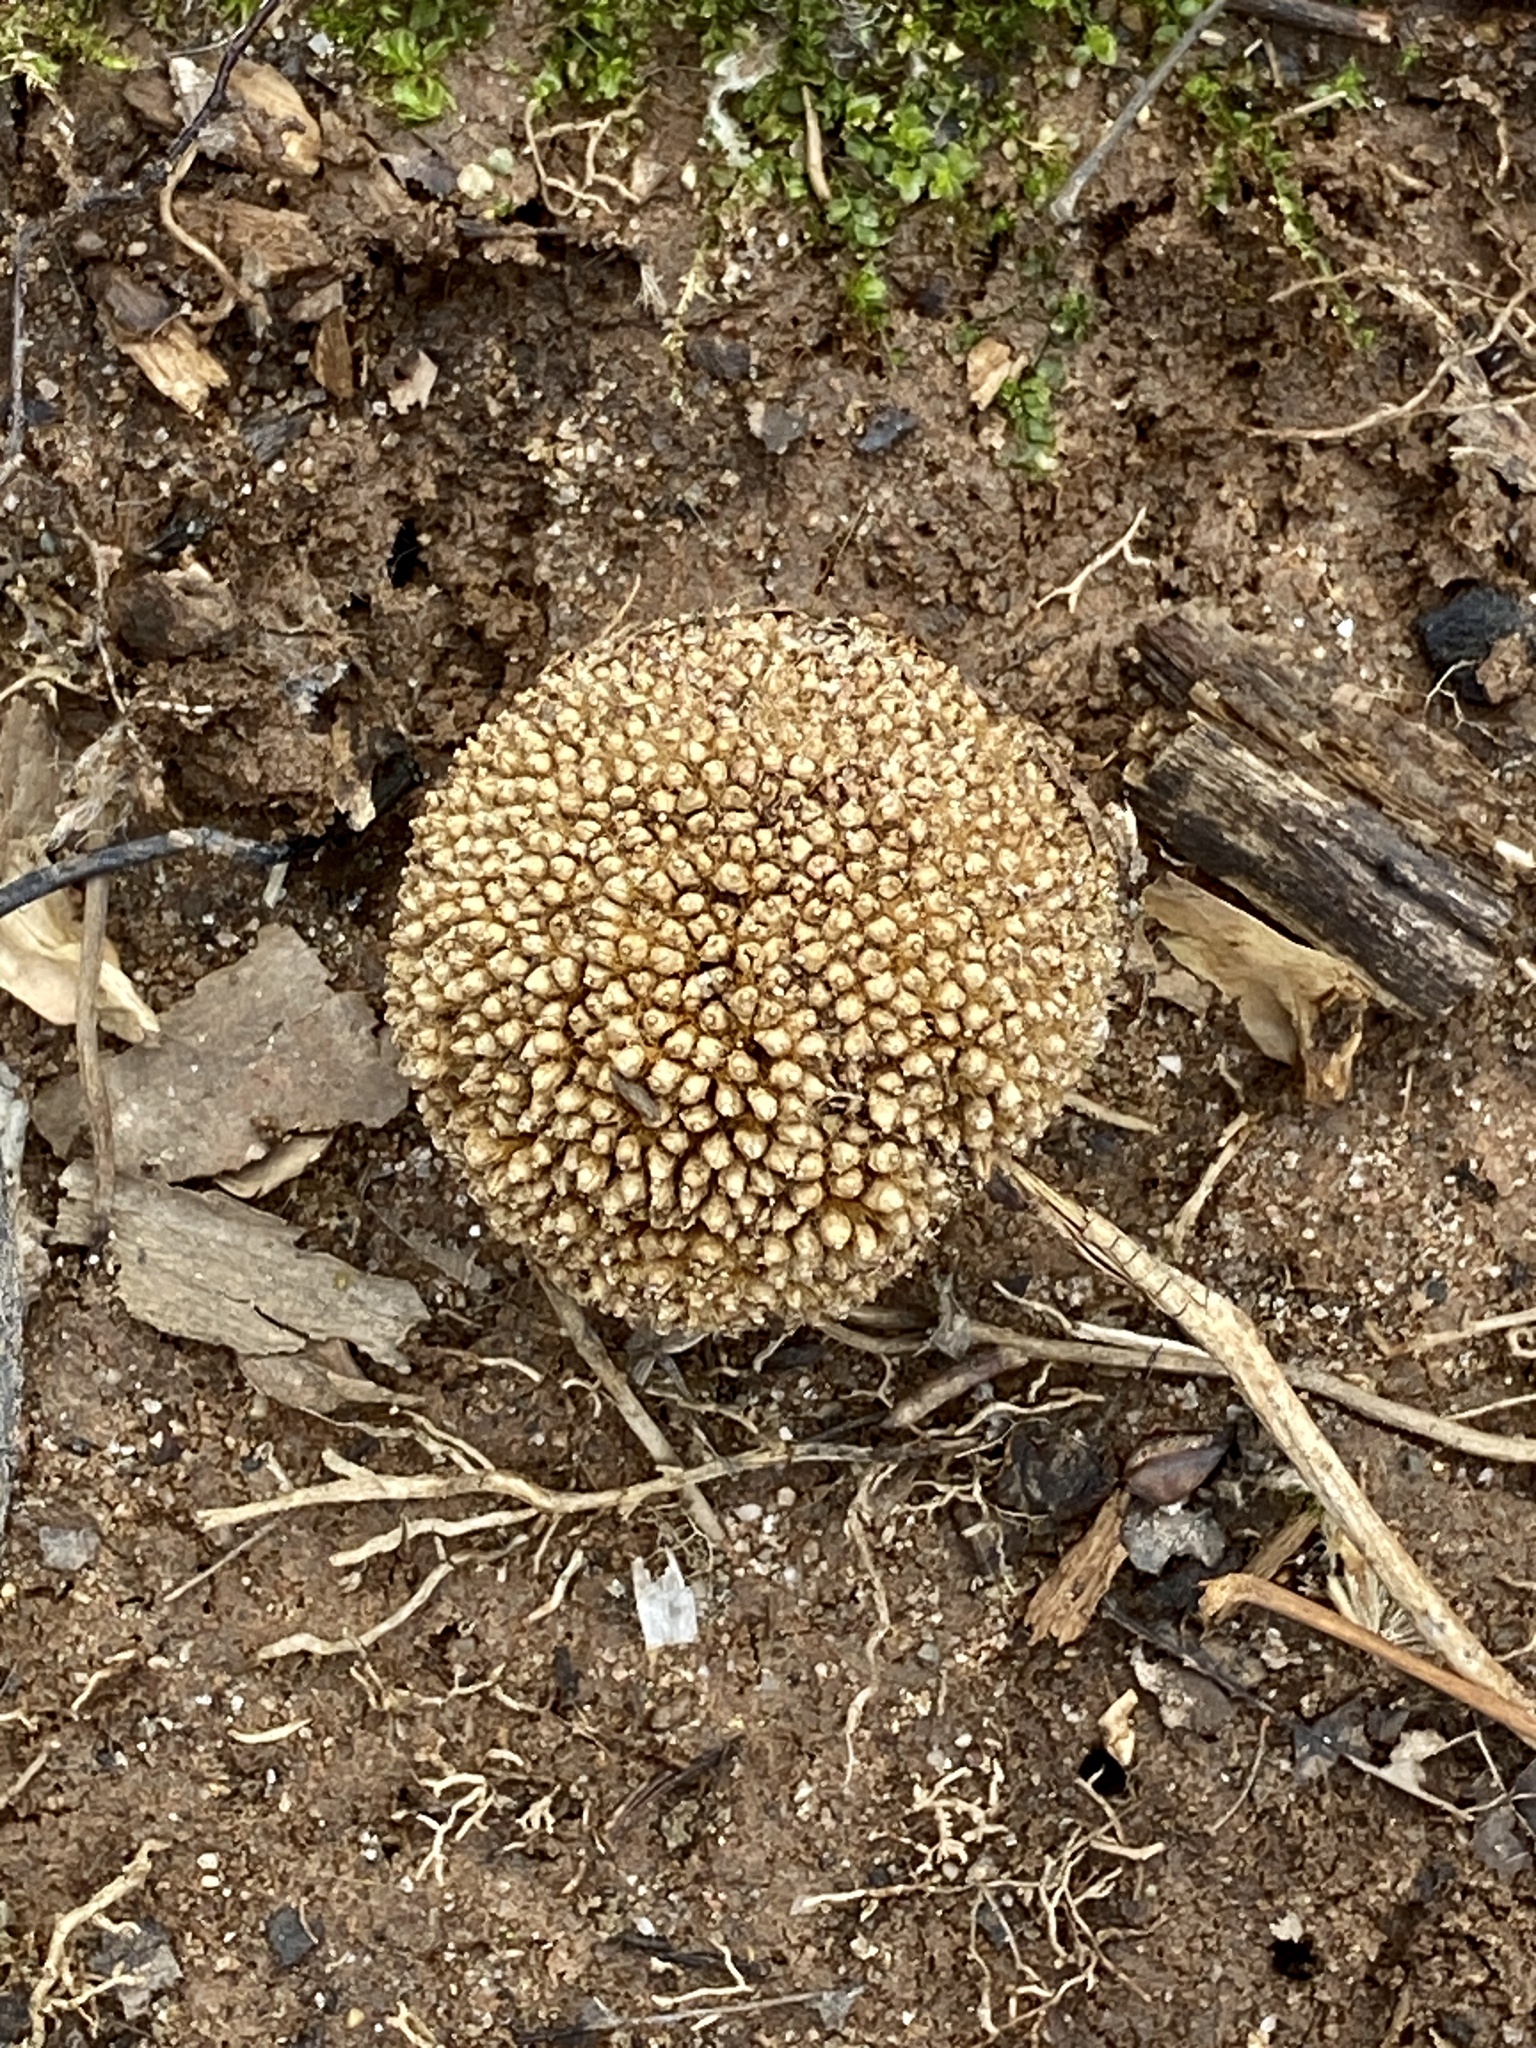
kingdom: Plantae
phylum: Tracheophyta
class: Magnoliopsida
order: Proteales
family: Platanaceae
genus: Platanus
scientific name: Platanus occidentalis
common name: American sycamore
